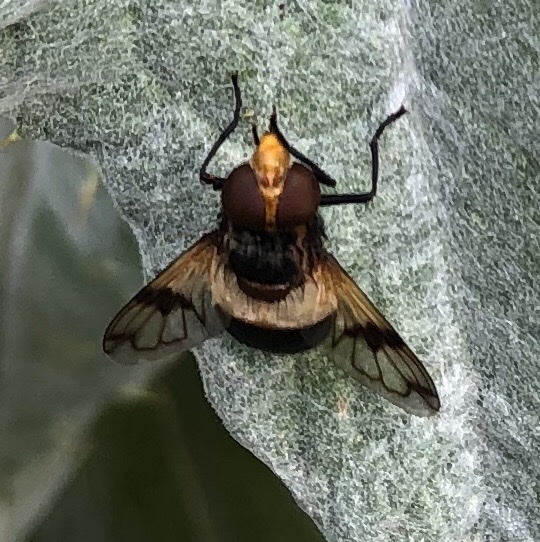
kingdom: Animalia
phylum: Arthropoda
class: Insecta
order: Diptera
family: Syrphidae
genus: Volucella
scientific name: Volucella pellucens
